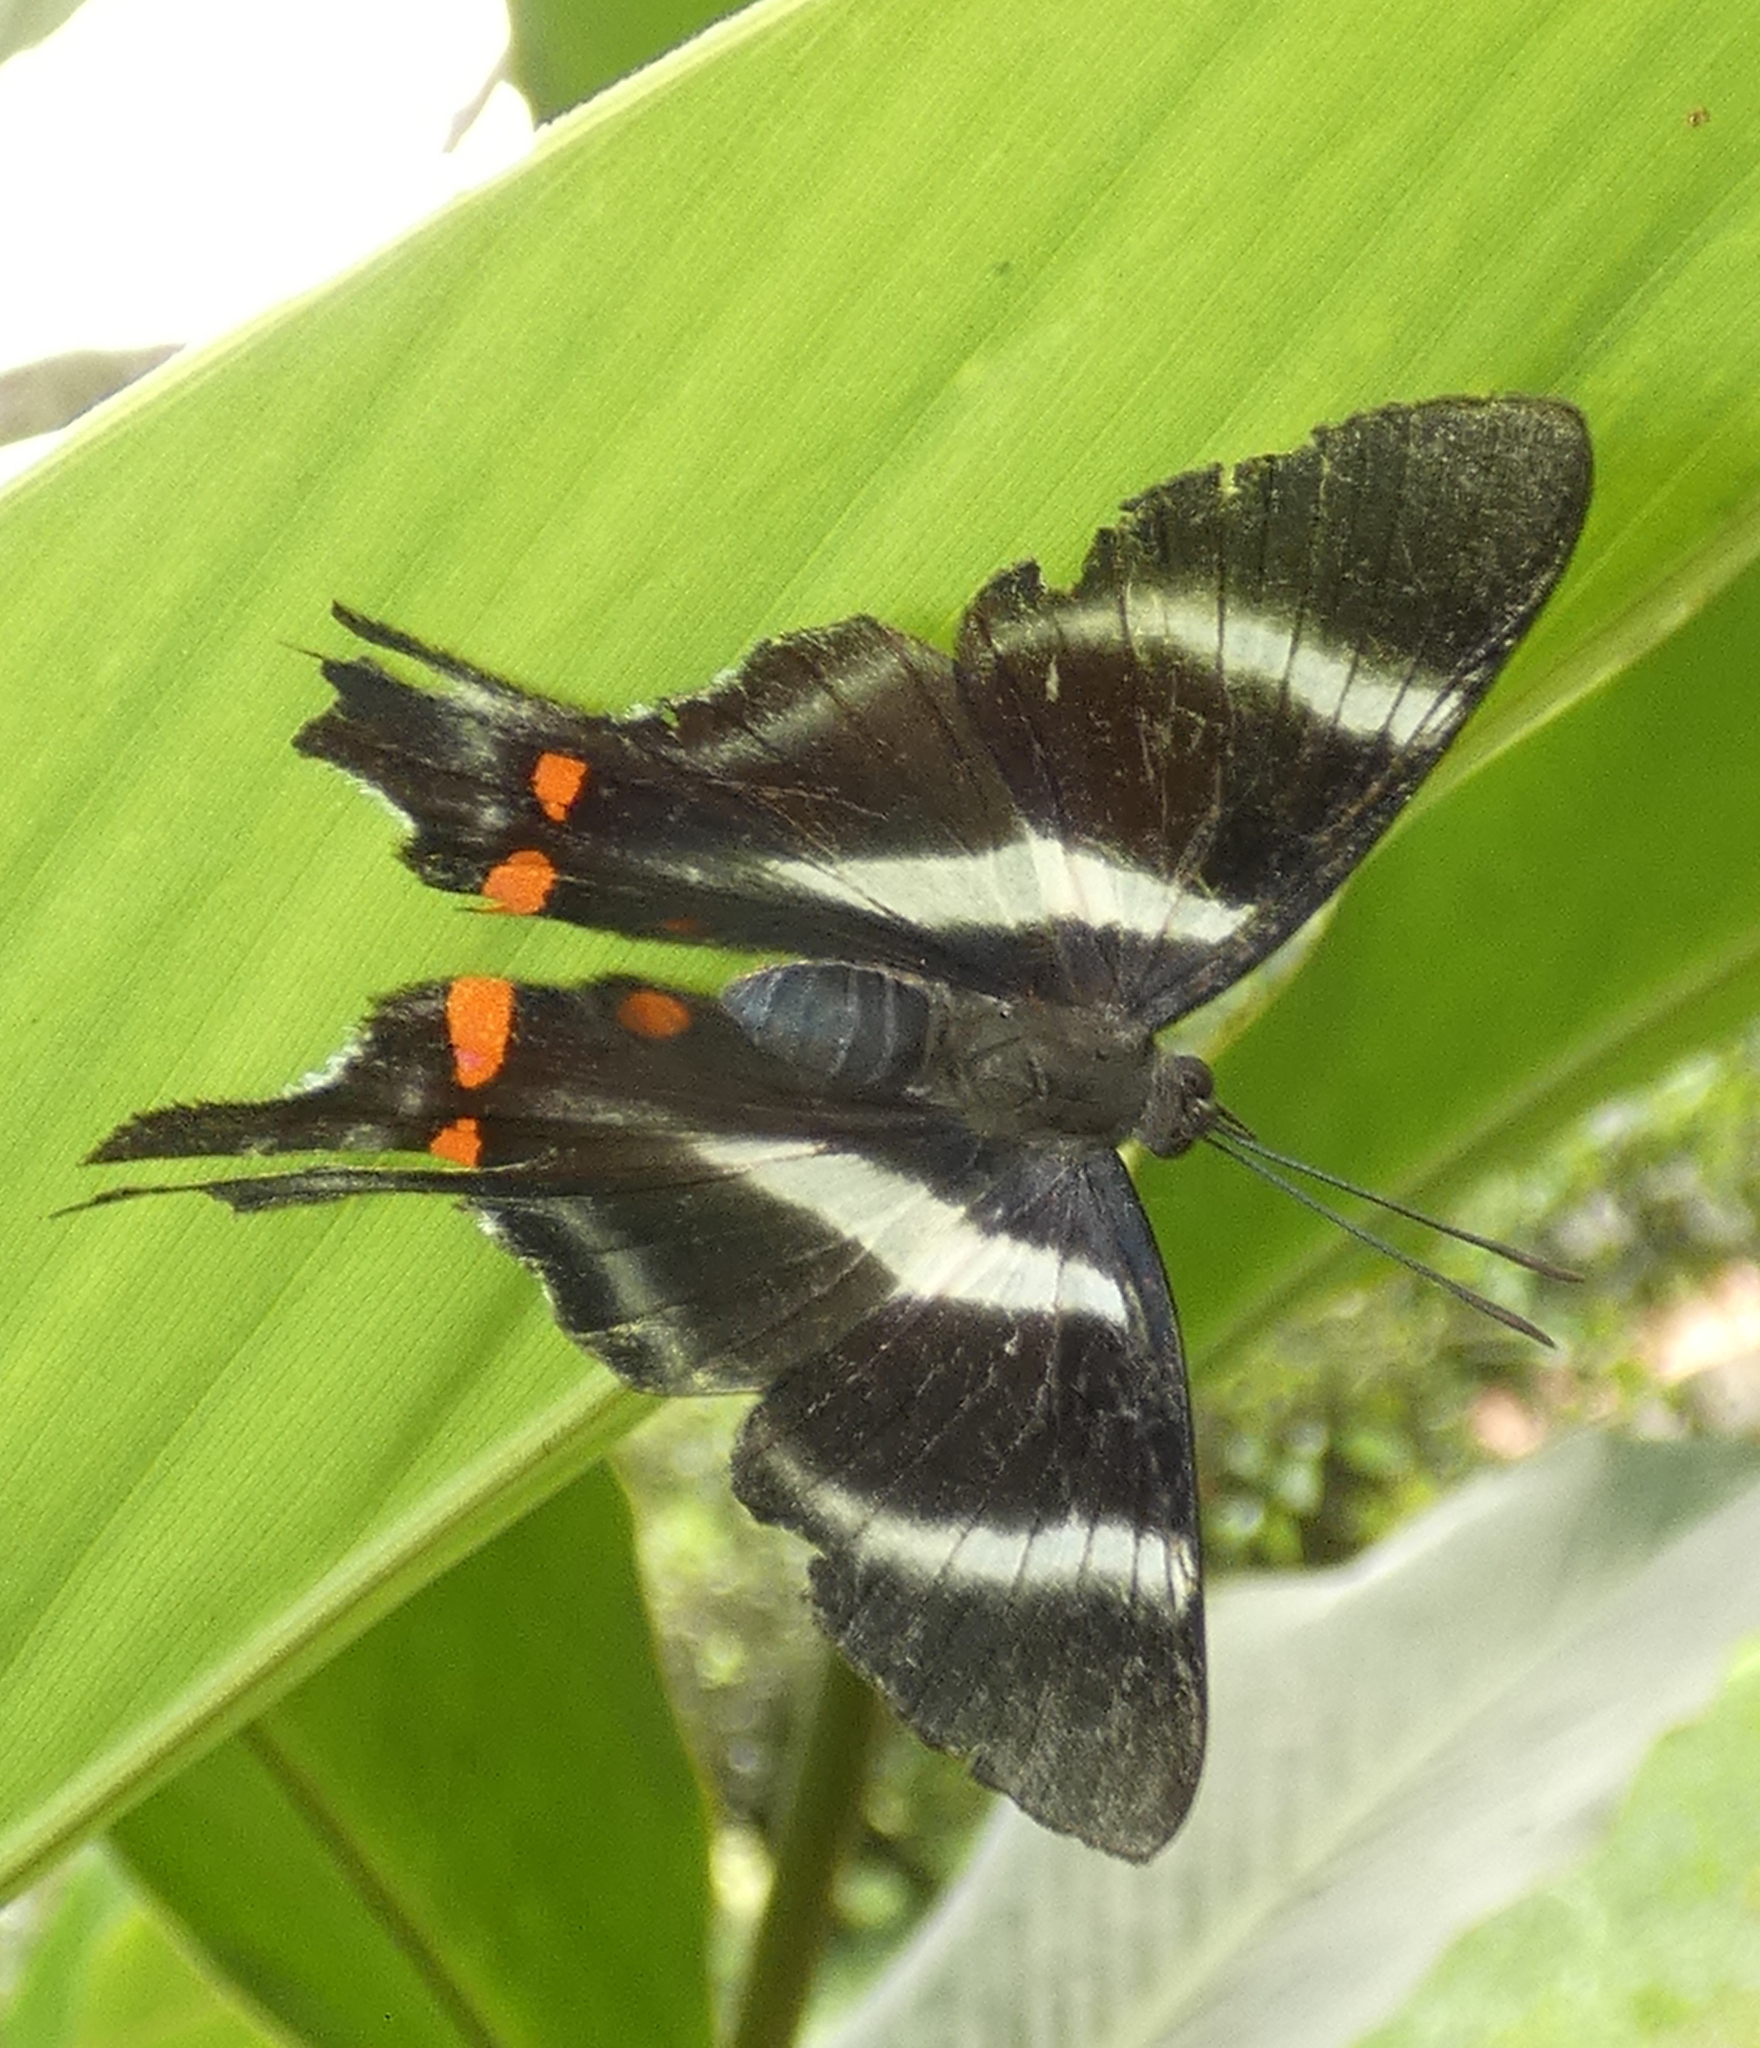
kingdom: Animalia
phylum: Arthropoda
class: Insecta
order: Lepidoptera
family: Riodinidae
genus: Rhetus
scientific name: Rhetus periander
